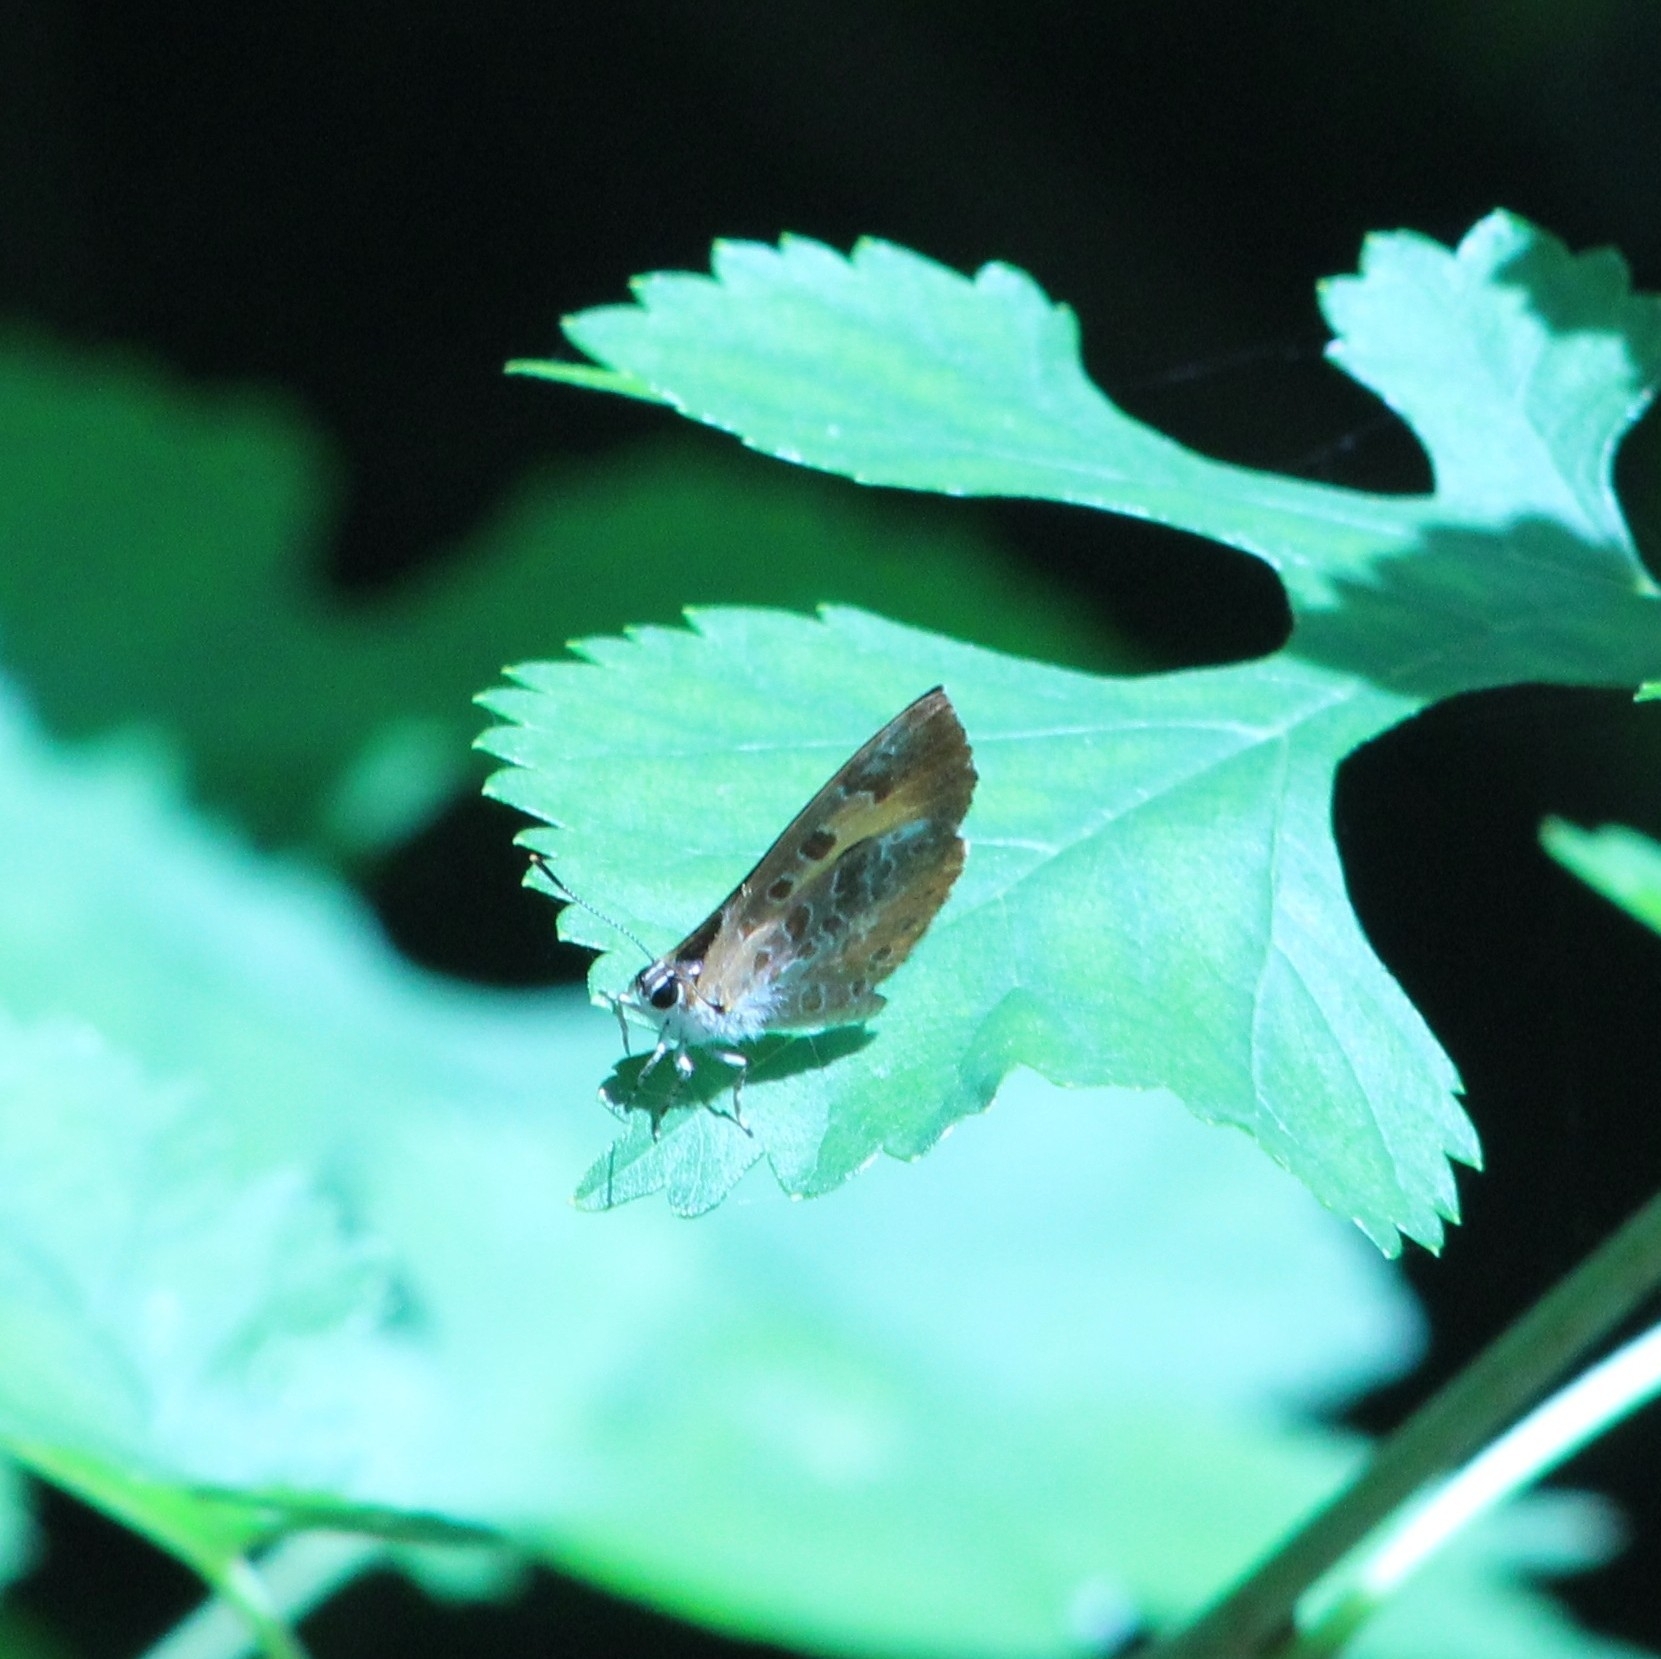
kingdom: Animalia
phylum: Arthropoda
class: Insecta
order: Lepidoptera
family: Lycaenidae
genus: Feniseca
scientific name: Feniseca tarquinius
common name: Harvester
